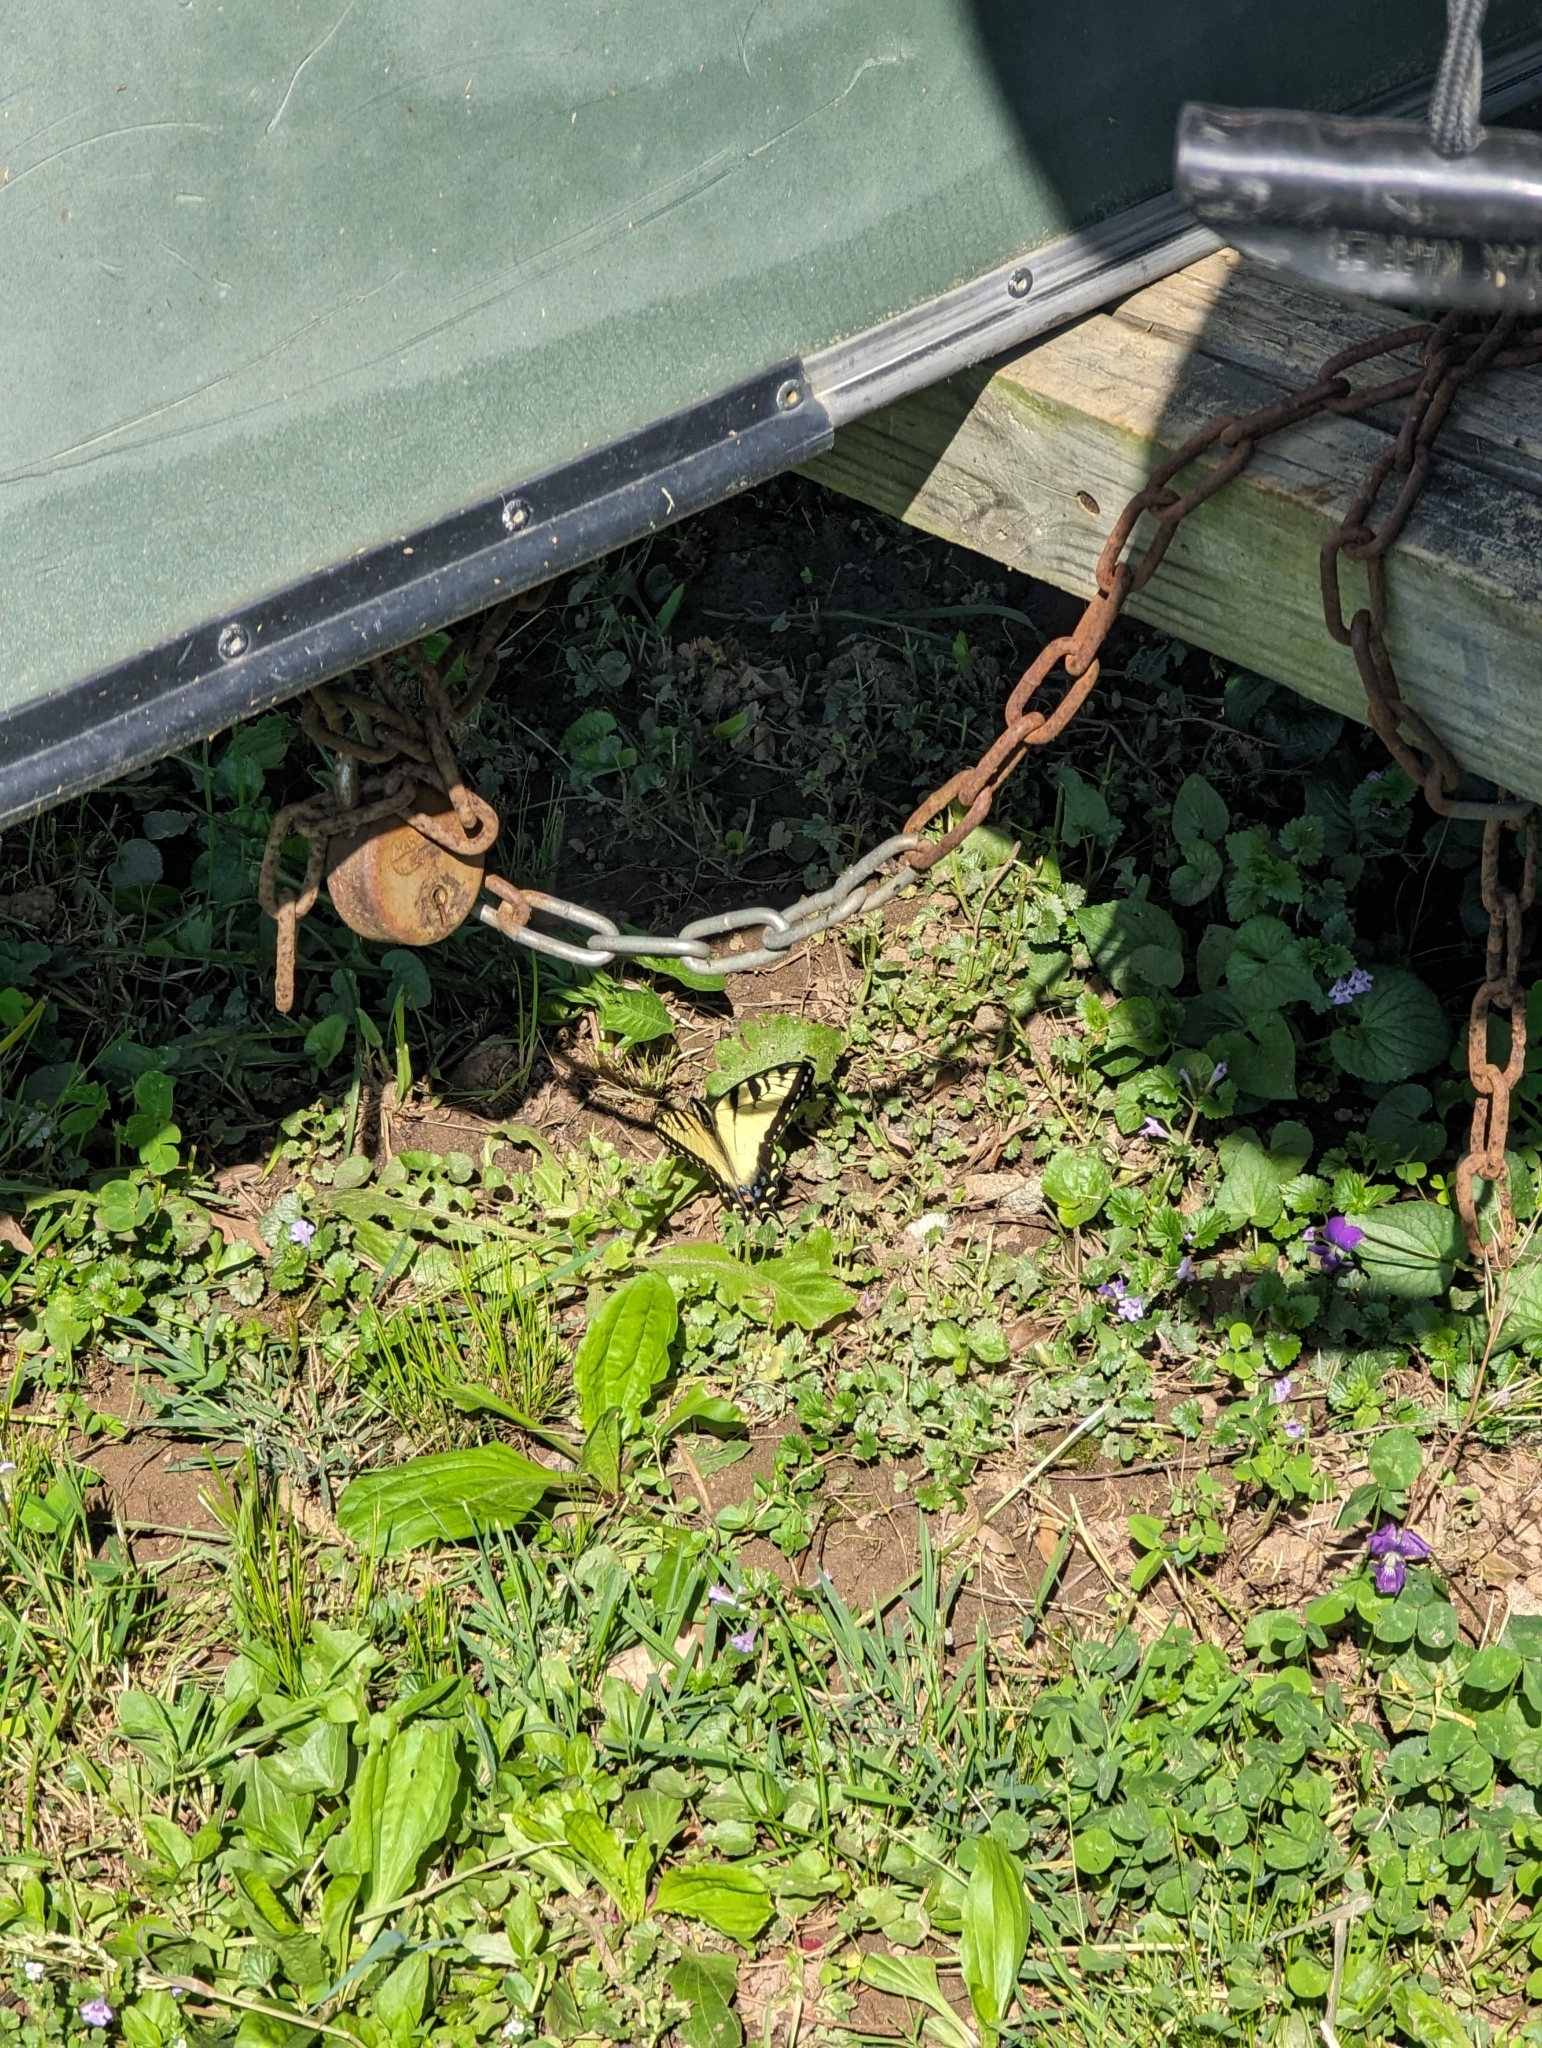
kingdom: Animalia
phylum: Arthropoda
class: Insecta
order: Lepidoptera
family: Papilionidae
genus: Papilio
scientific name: Papilio glaucus
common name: Tiger swallowtail
